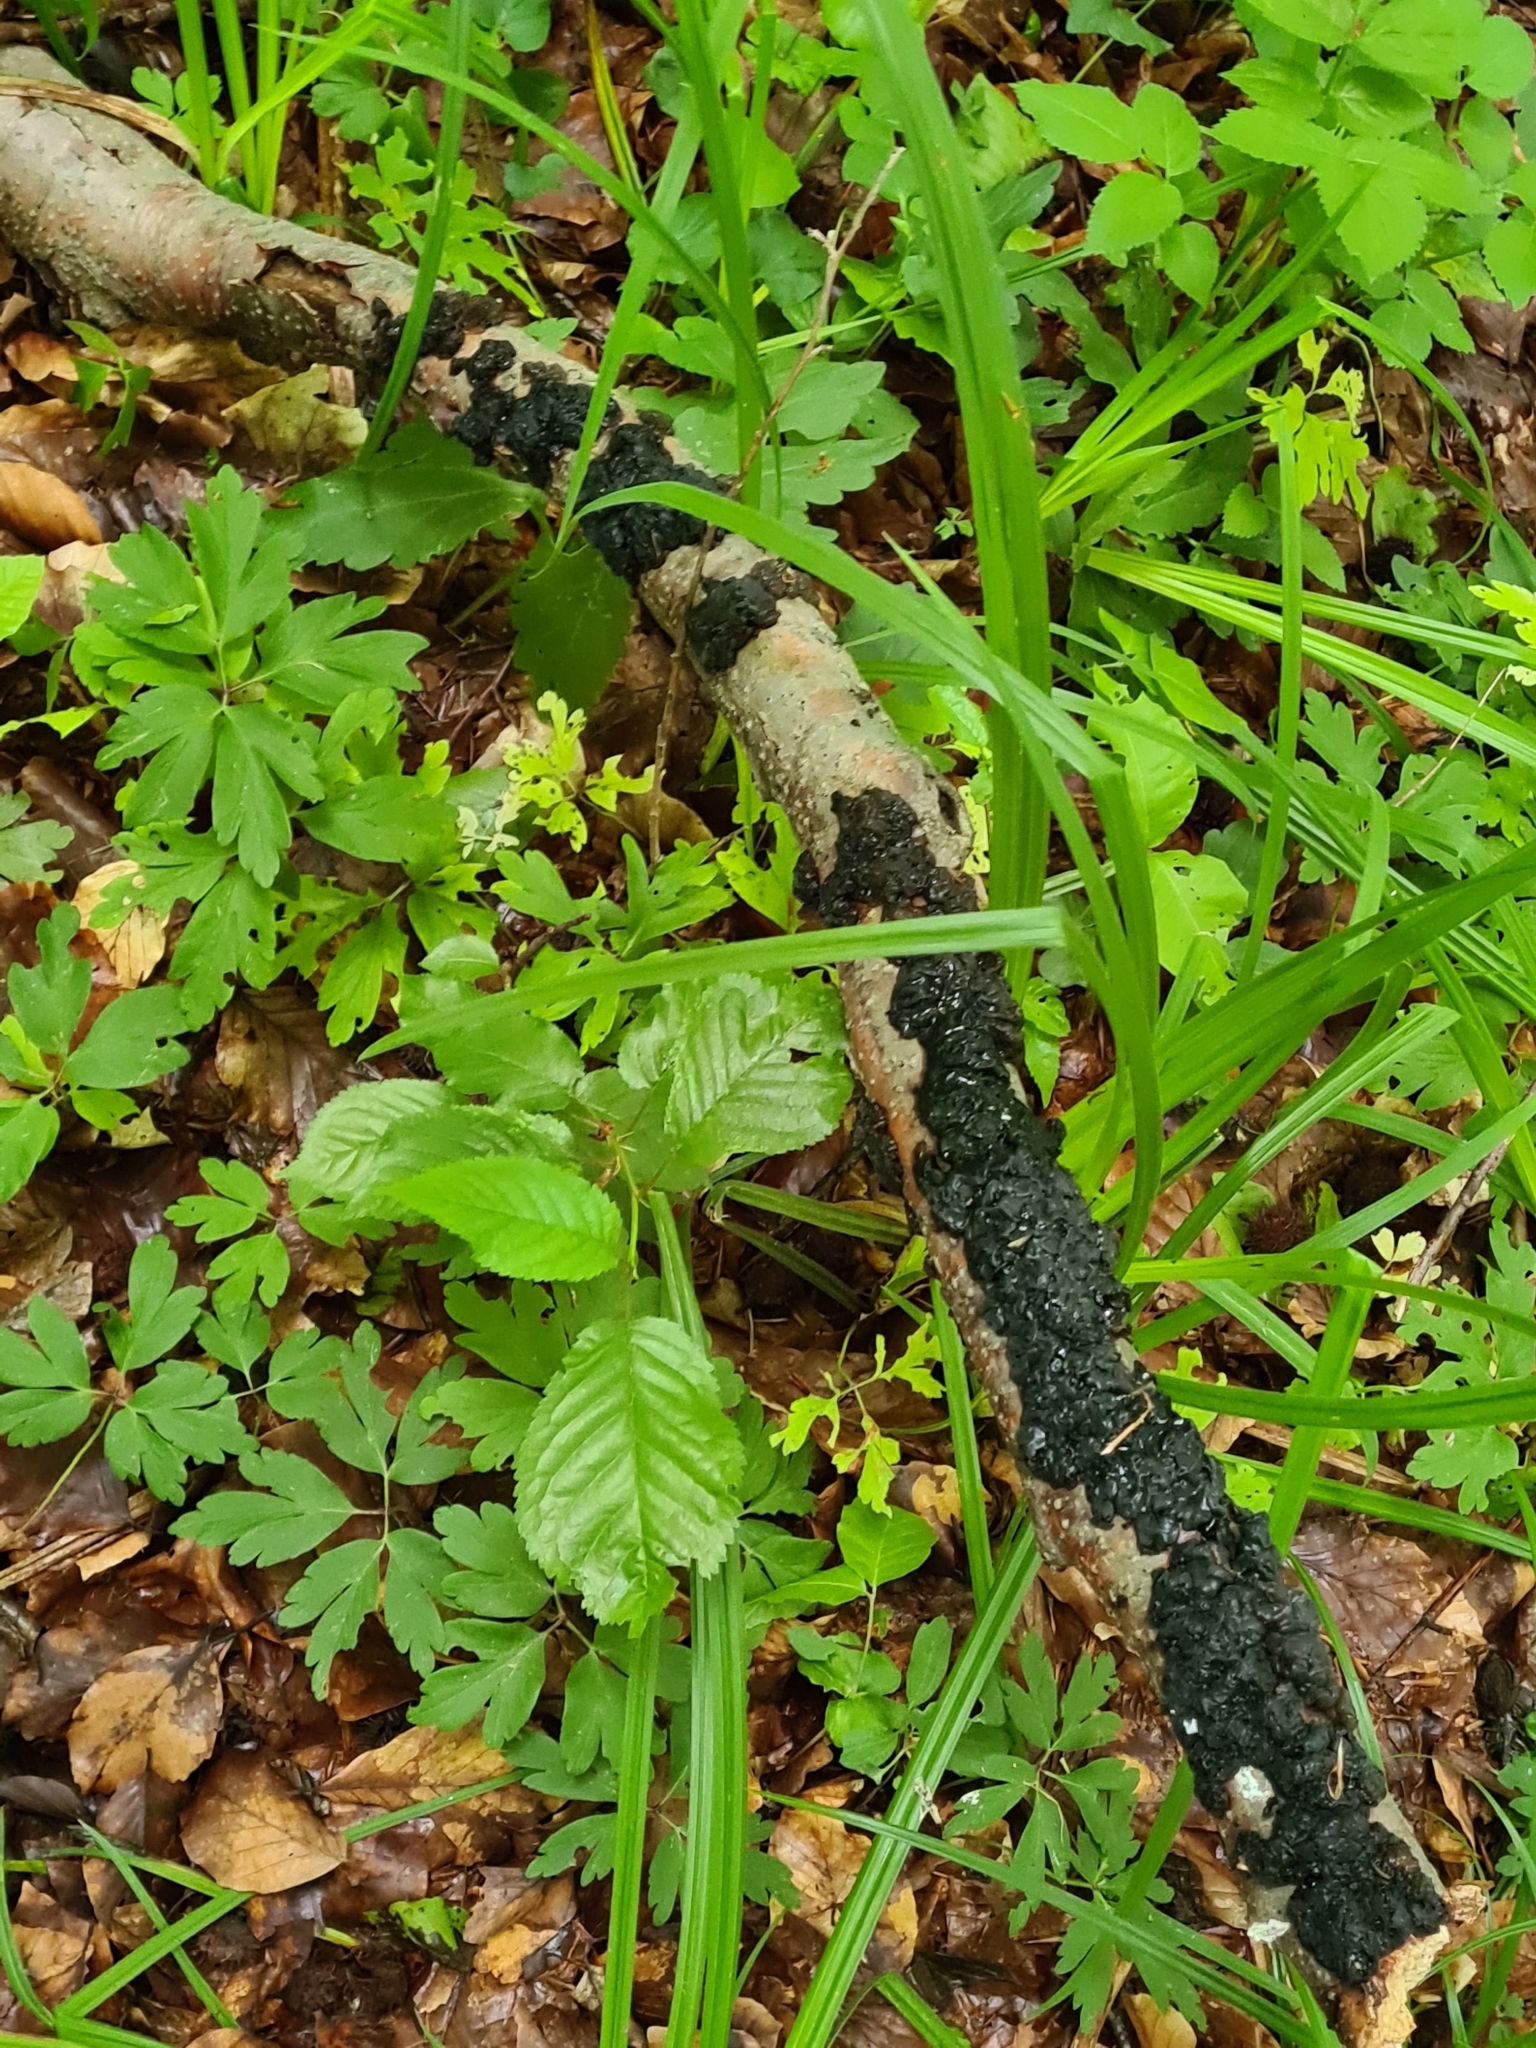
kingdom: Fungi
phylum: Basidiomycota
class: Agaricomycetes
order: Auriculariales
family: Auriculariaceae
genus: Exidia
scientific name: Exidia nigricans
